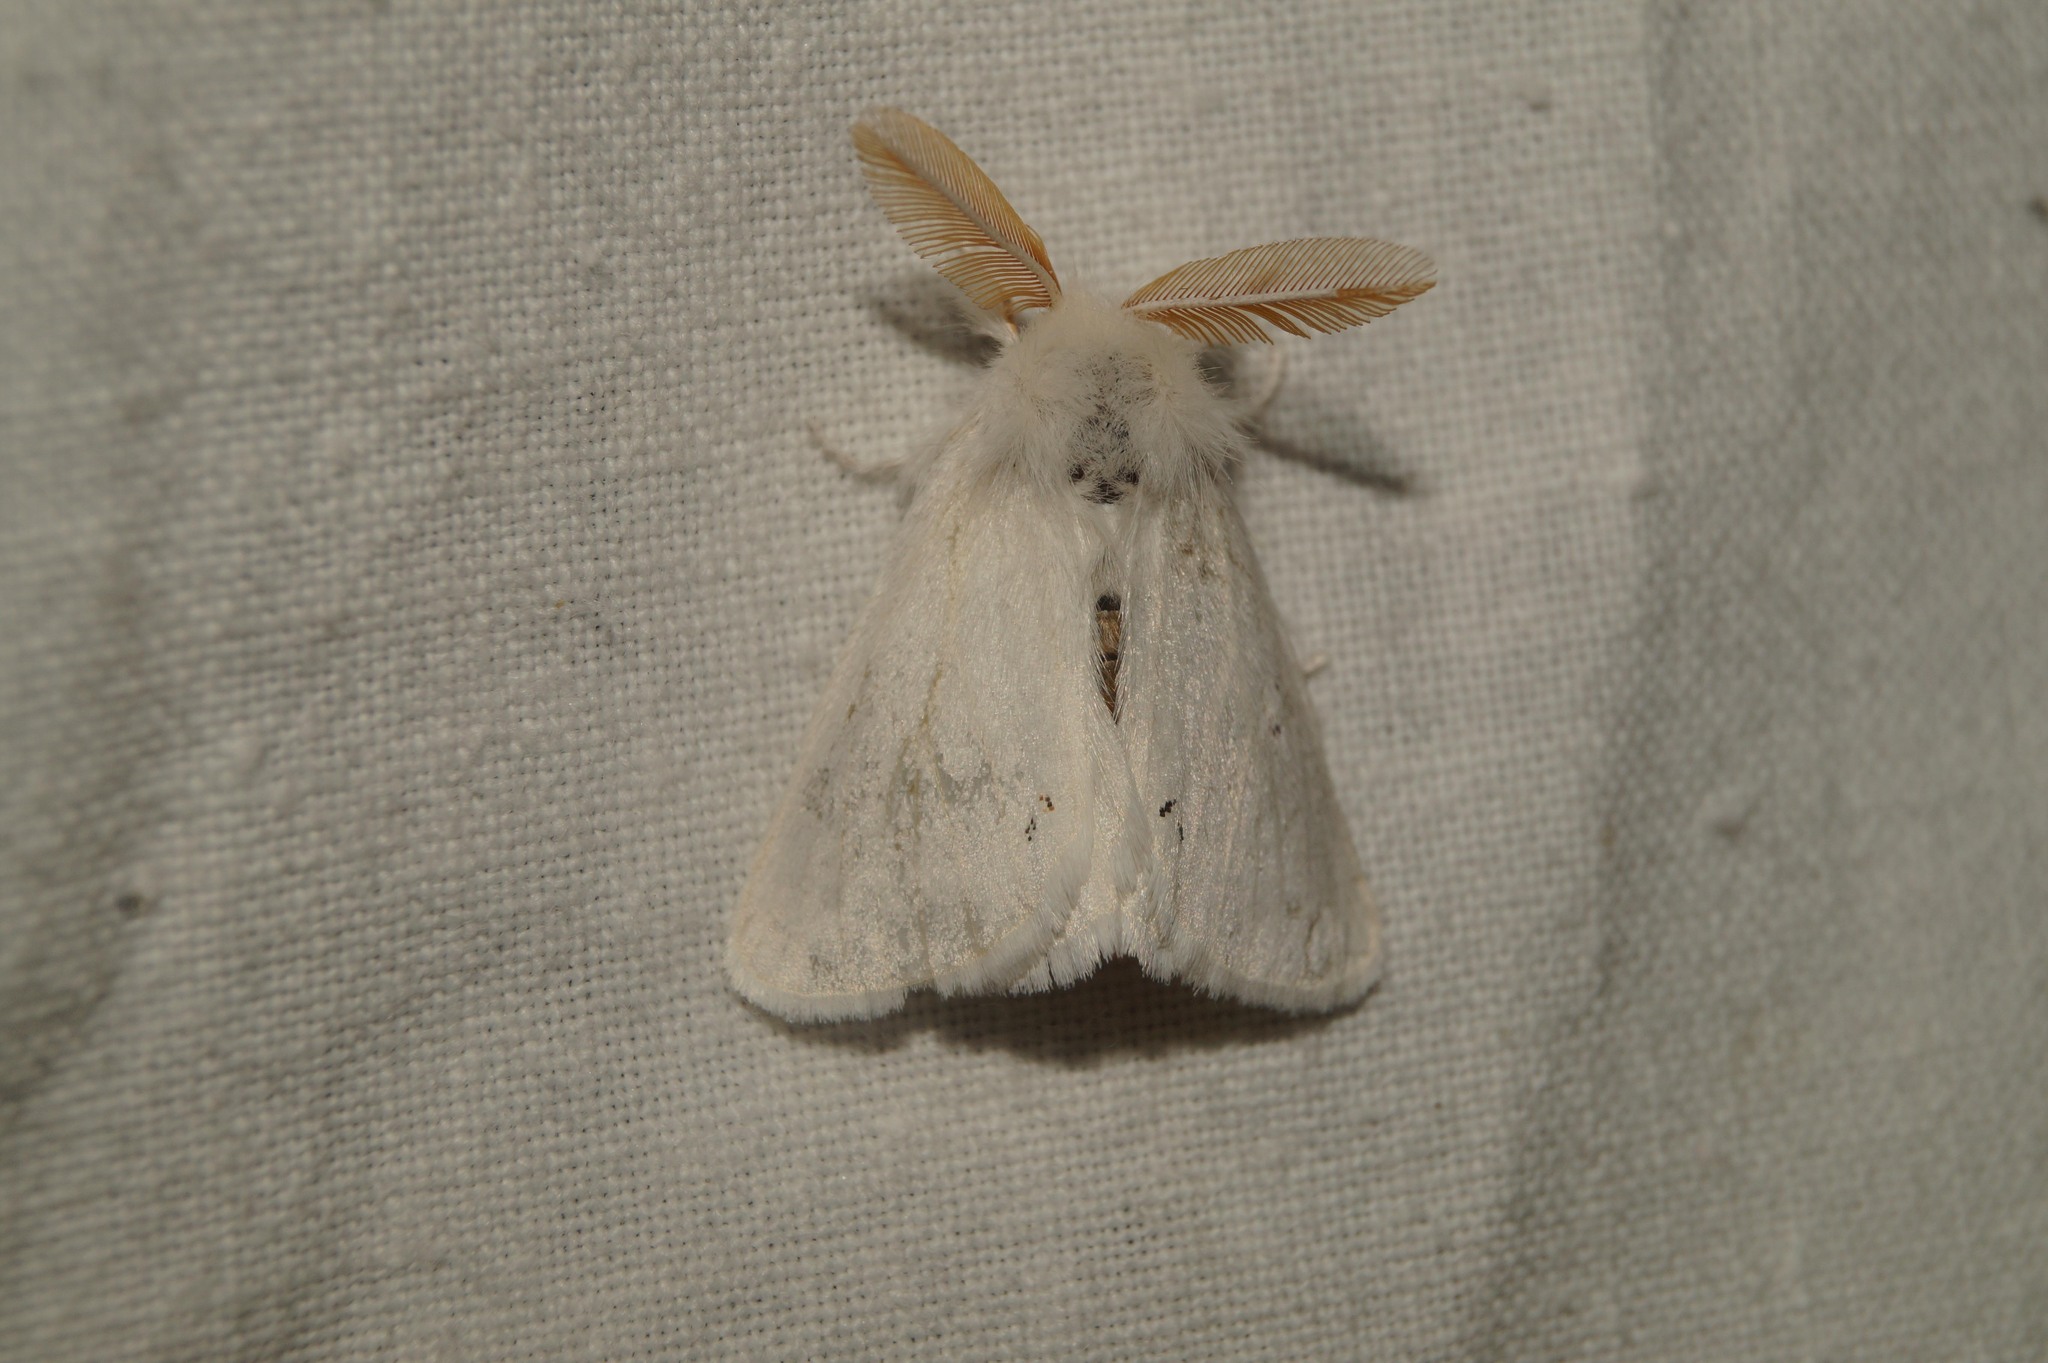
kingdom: Animalia
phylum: Arthropoda
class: Insecta
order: Lepidoptera
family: Erebidae
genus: Euproctis
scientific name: Euproctis chrysorrhoea
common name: Brown-tail
